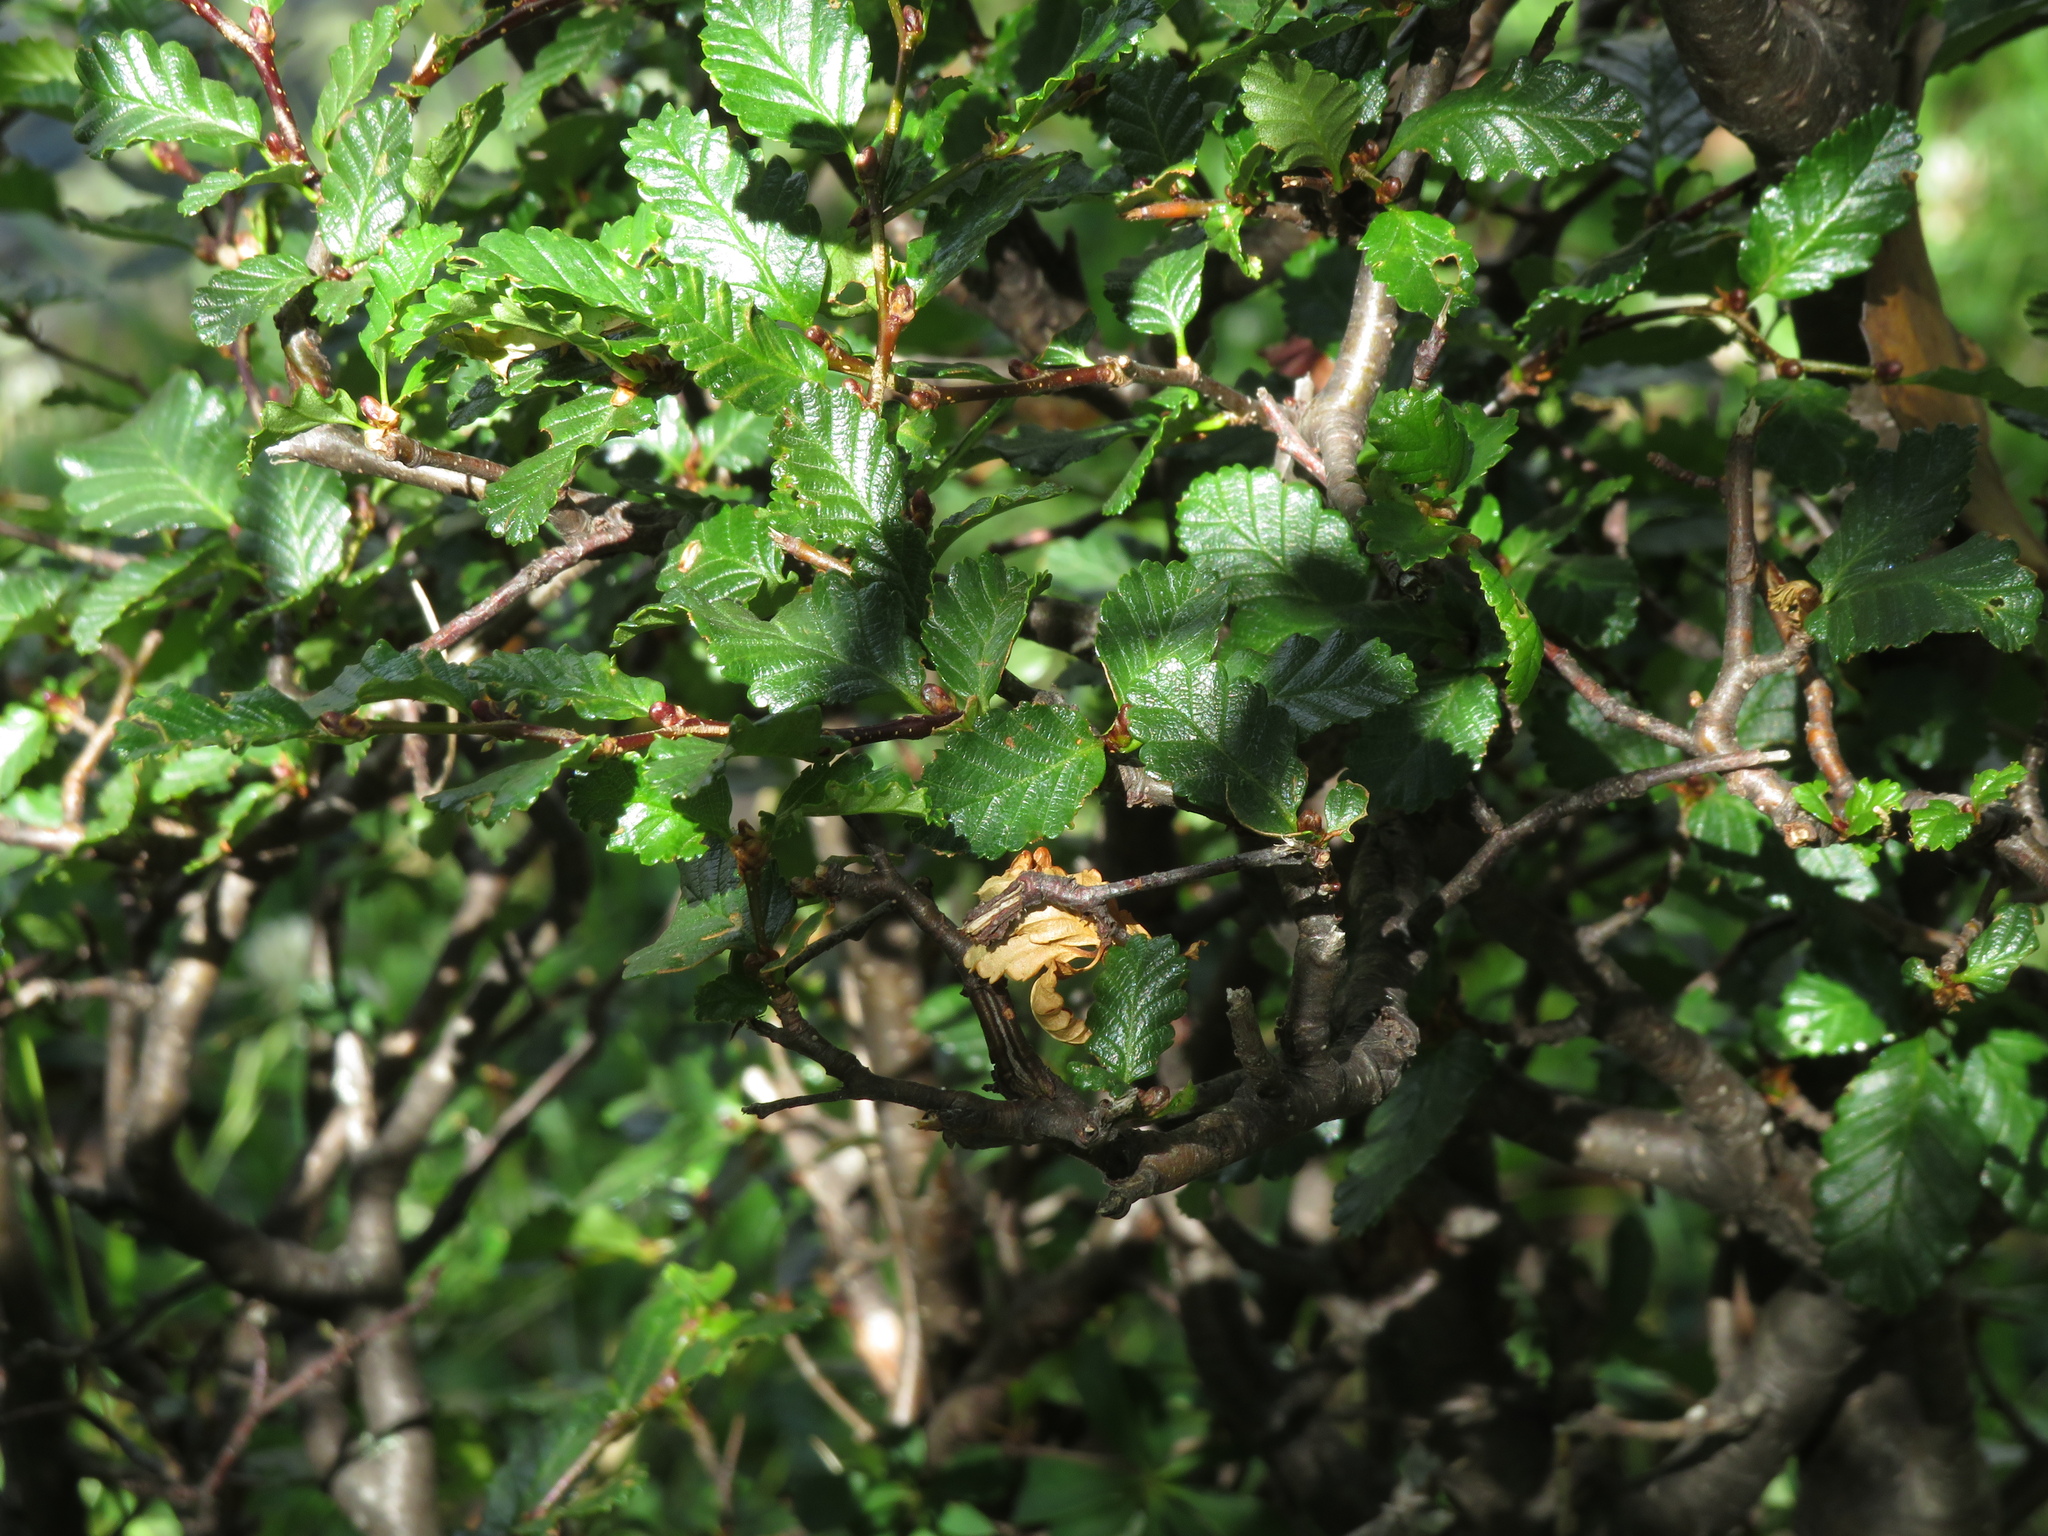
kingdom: Plantae
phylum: Tracheophyta
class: Magnoliopsida
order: Fagales
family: Nothofagaceae
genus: Nothofagus
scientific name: Nothofagus pumilio
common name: Lenga beech
